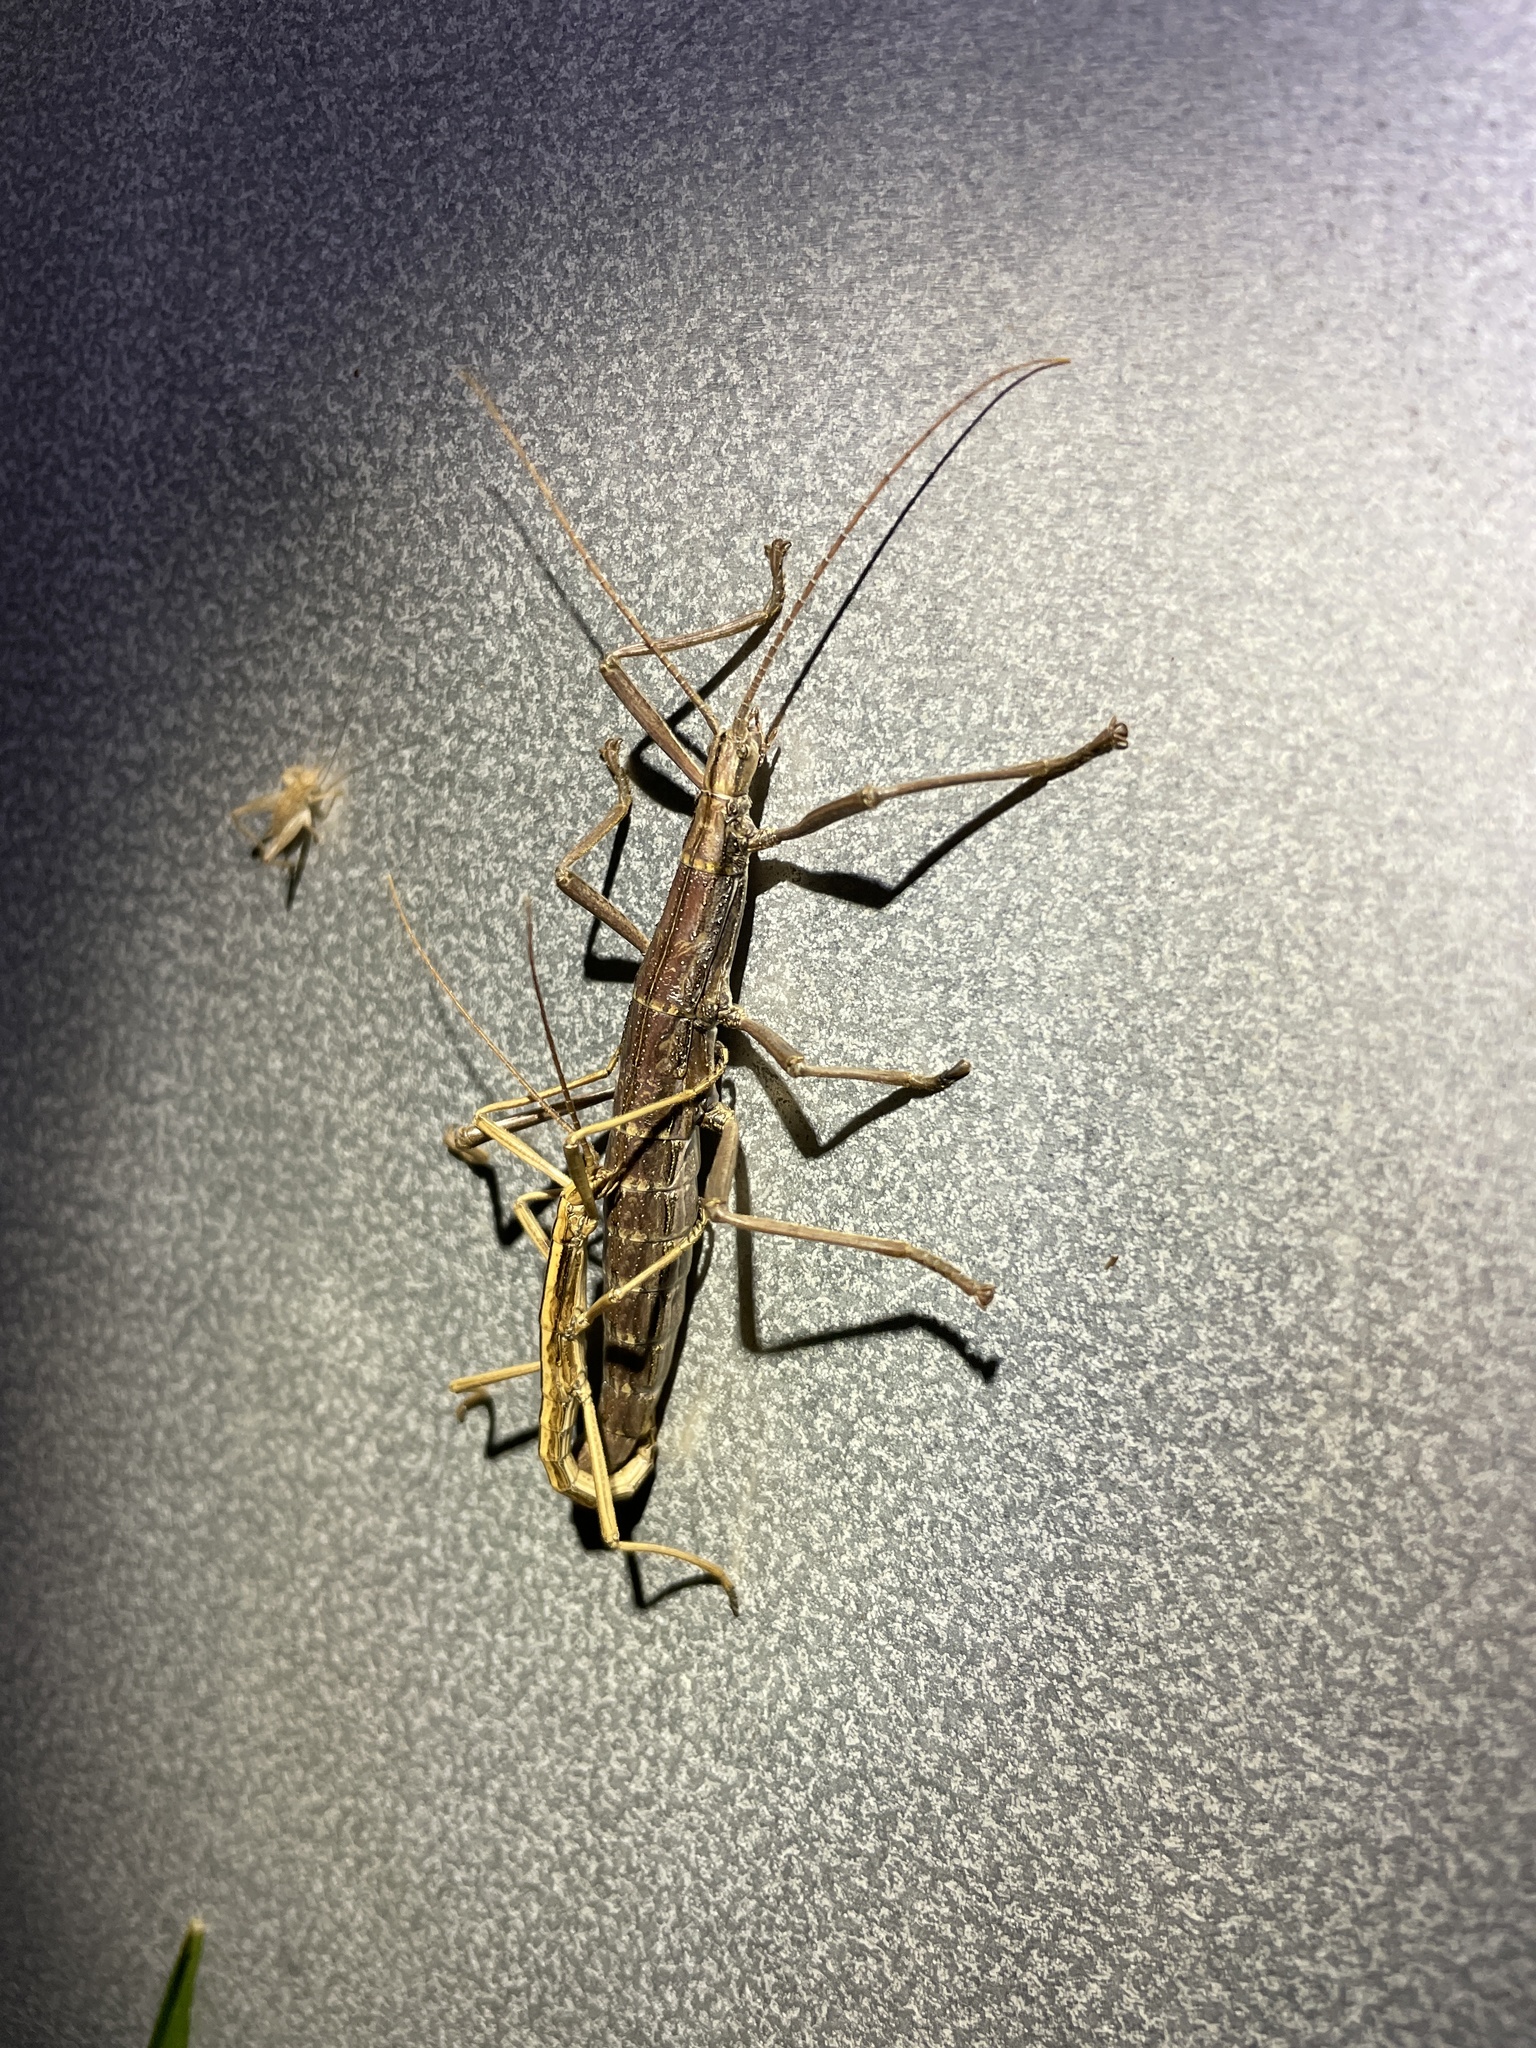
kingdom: Animalia
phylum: Arthropoda
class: Insecta
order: Phasmida
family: Pseudophasmatidae
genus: Anisomorpha
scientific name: Anisomorpha buprestoides
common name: Florida stick insect
